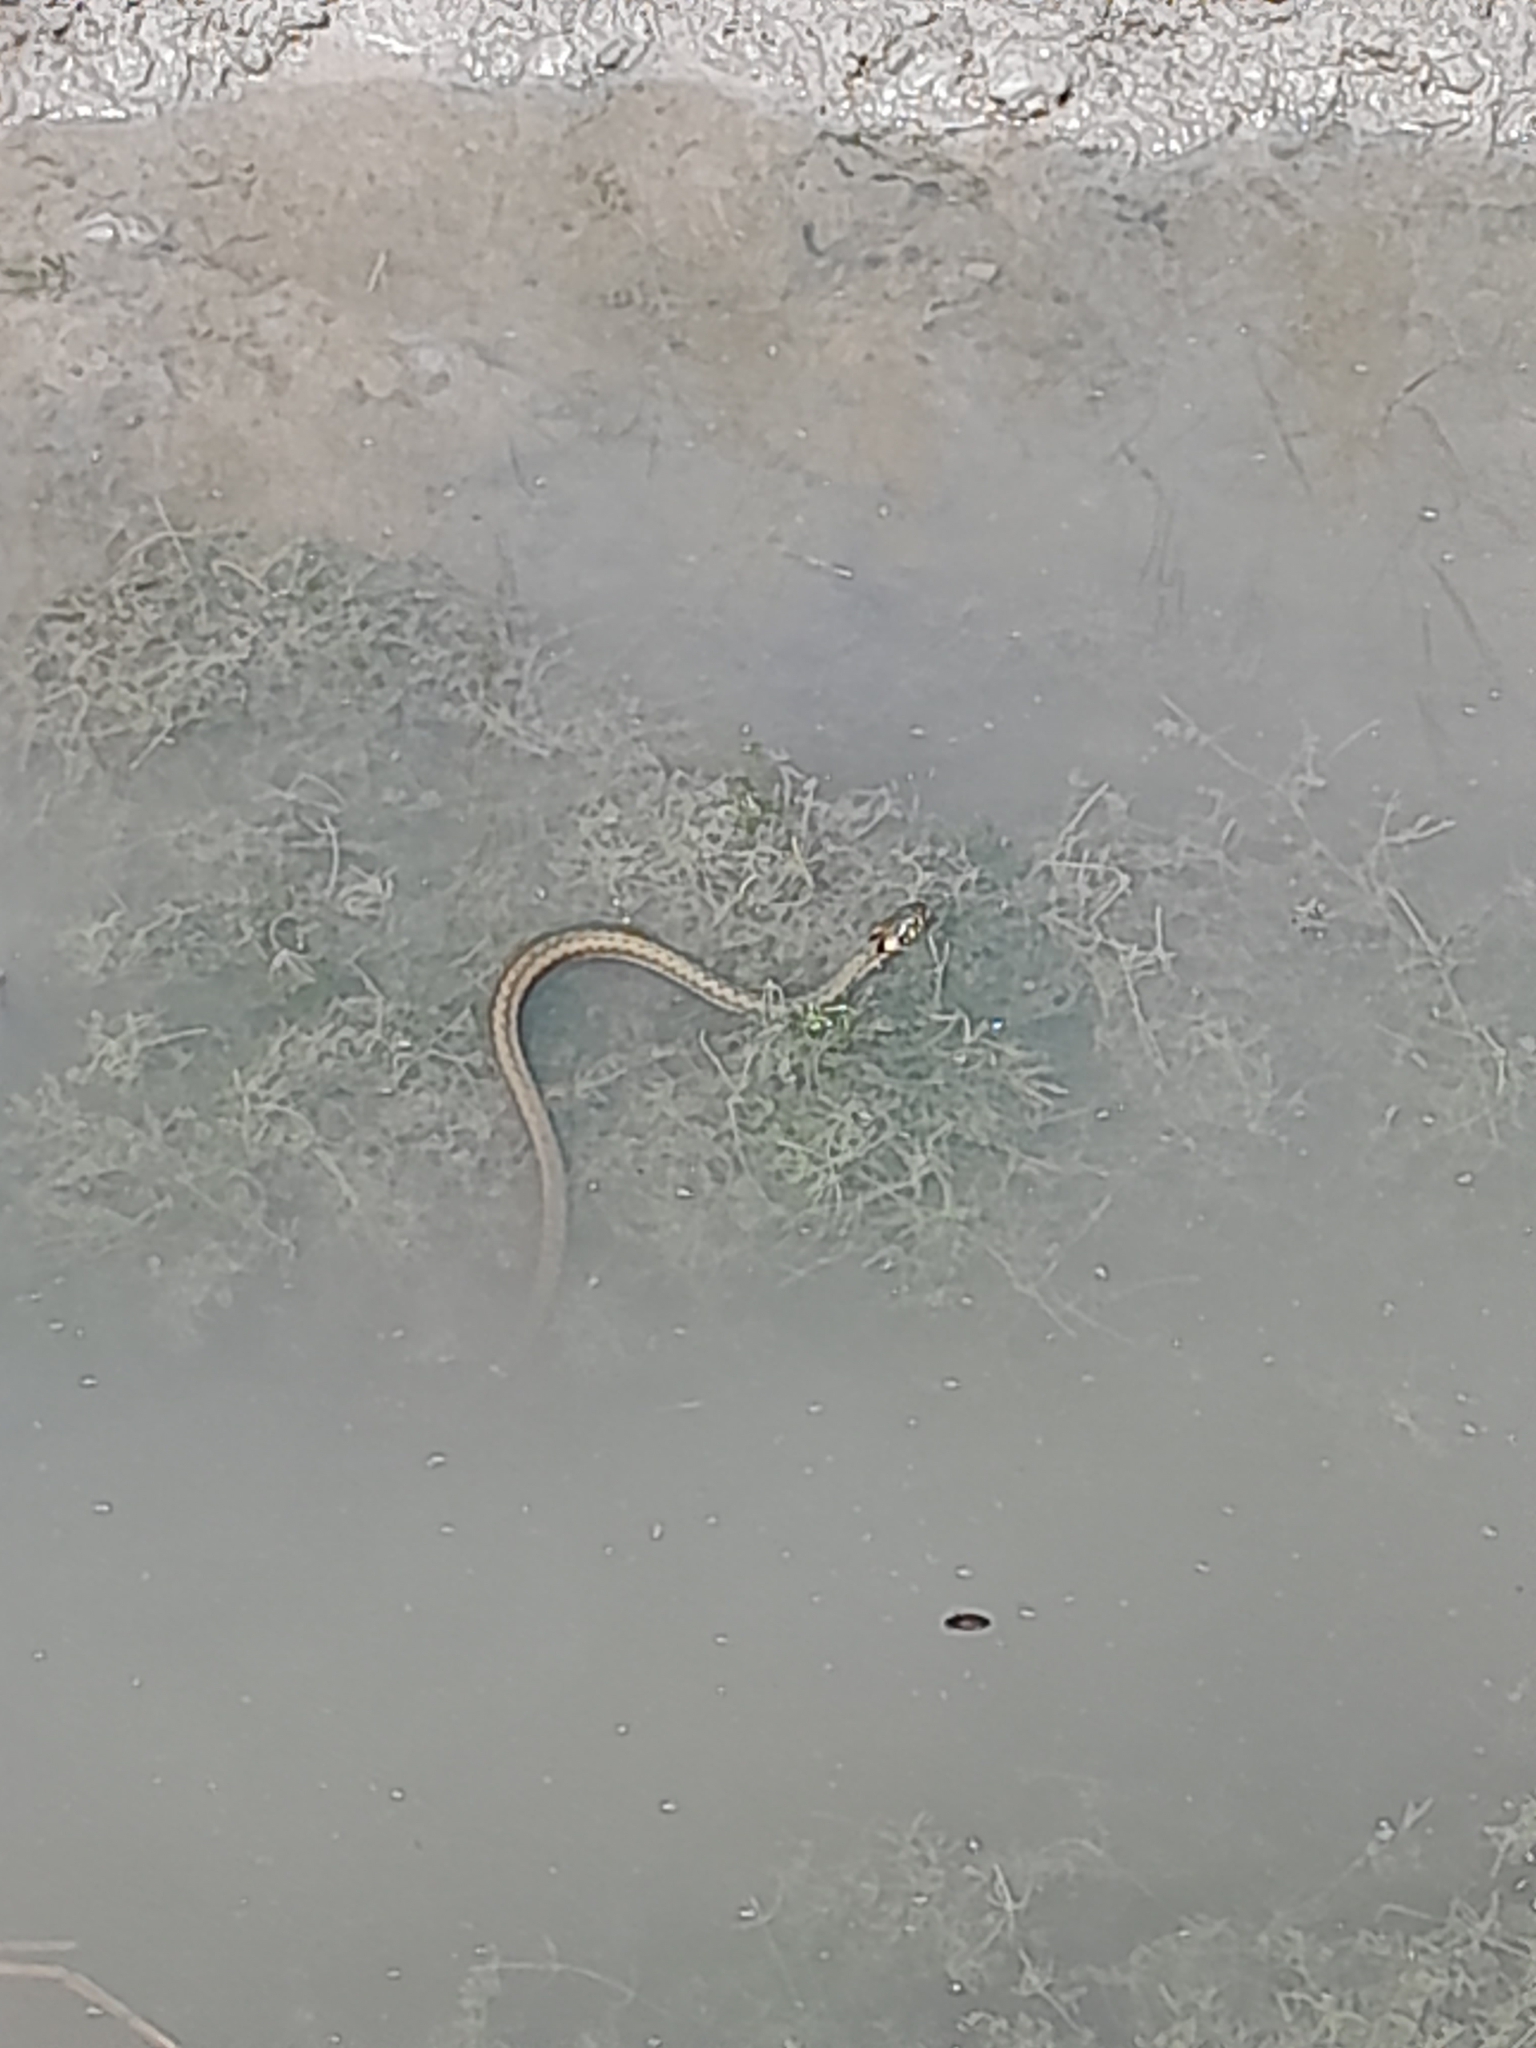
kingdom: Animalia
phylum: Chordata
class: Squamata
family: Colubridae
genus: Natrix
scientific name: Natrix natrix
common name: Grass snake
